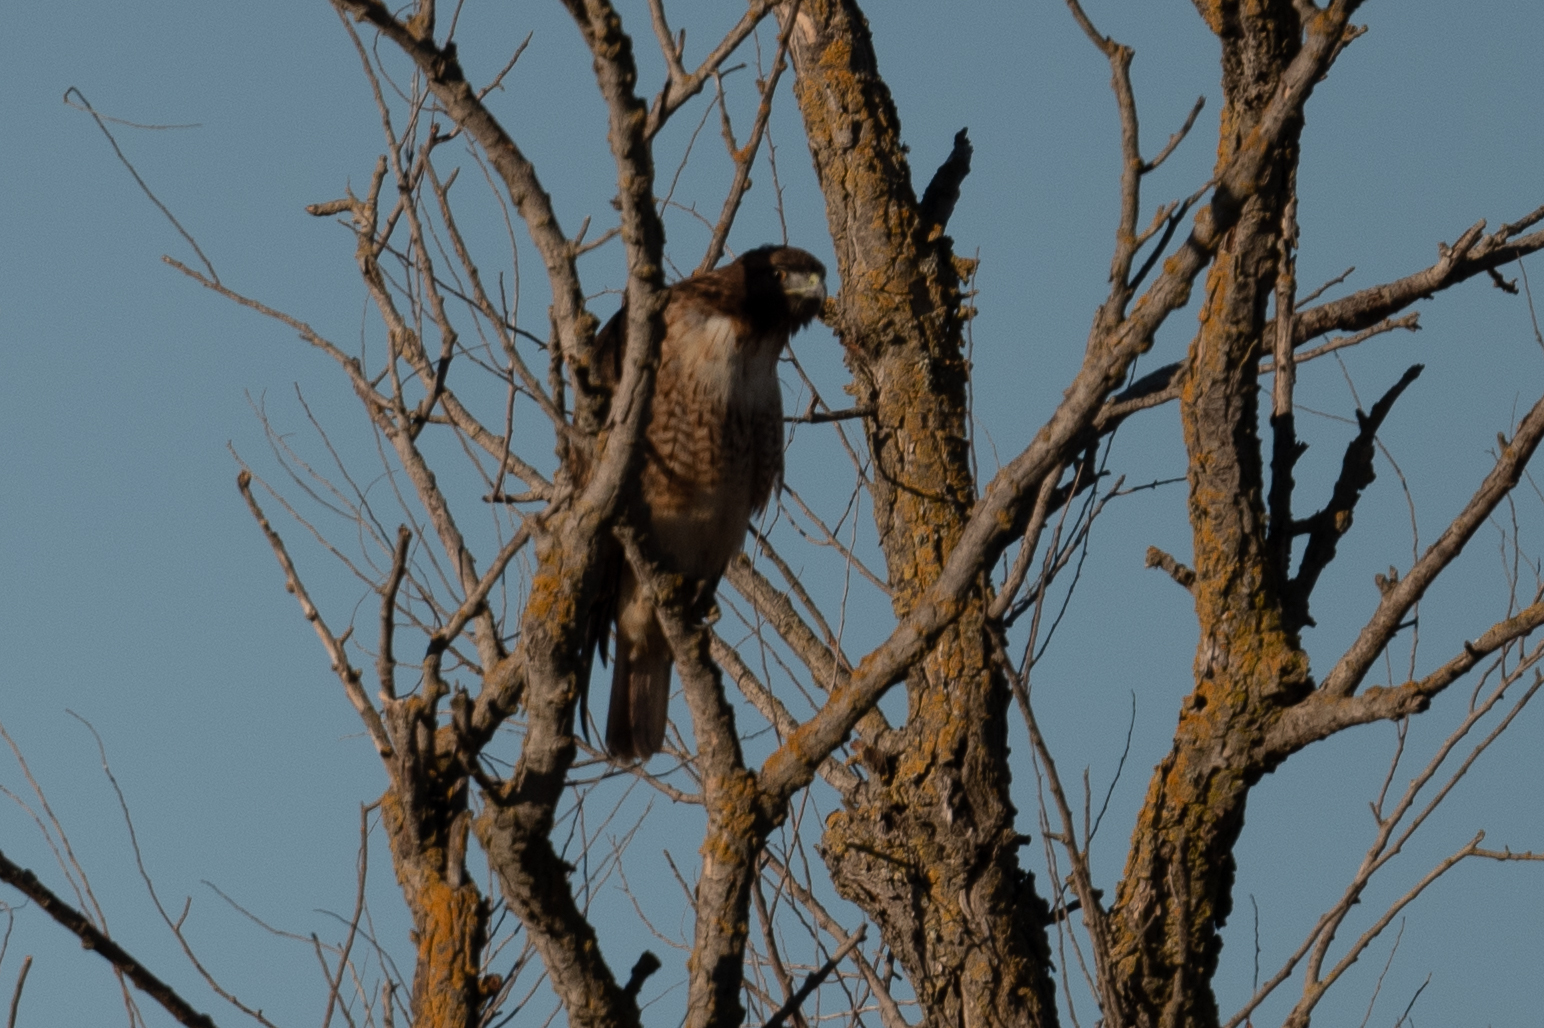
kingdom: Animalia
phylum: Chordata
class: Aves
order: Accipitriformes
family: Accipitridae
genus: Buteo
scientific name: Buteo jamaicensis
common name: Red-tailed hawk
